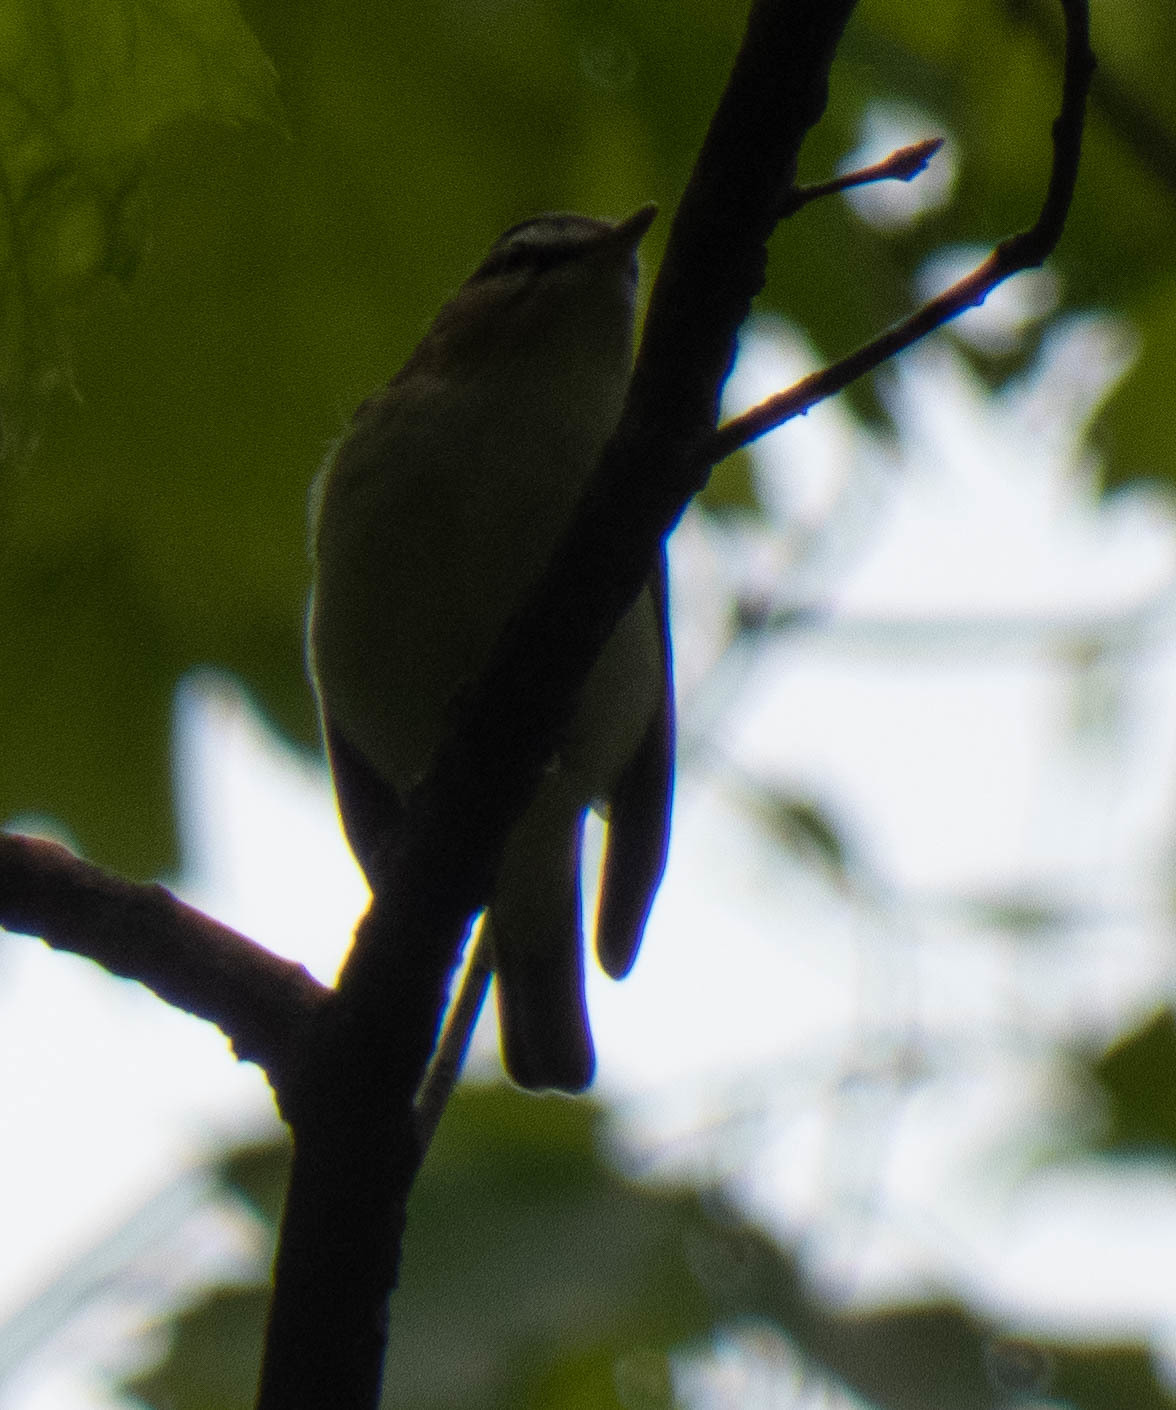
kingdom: Animalia
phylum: Chordata
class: Aves
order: Passeriformes
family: Vireonidae
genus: Vireo
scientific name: Vireo olivaceus
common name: Red-eyed vireo
